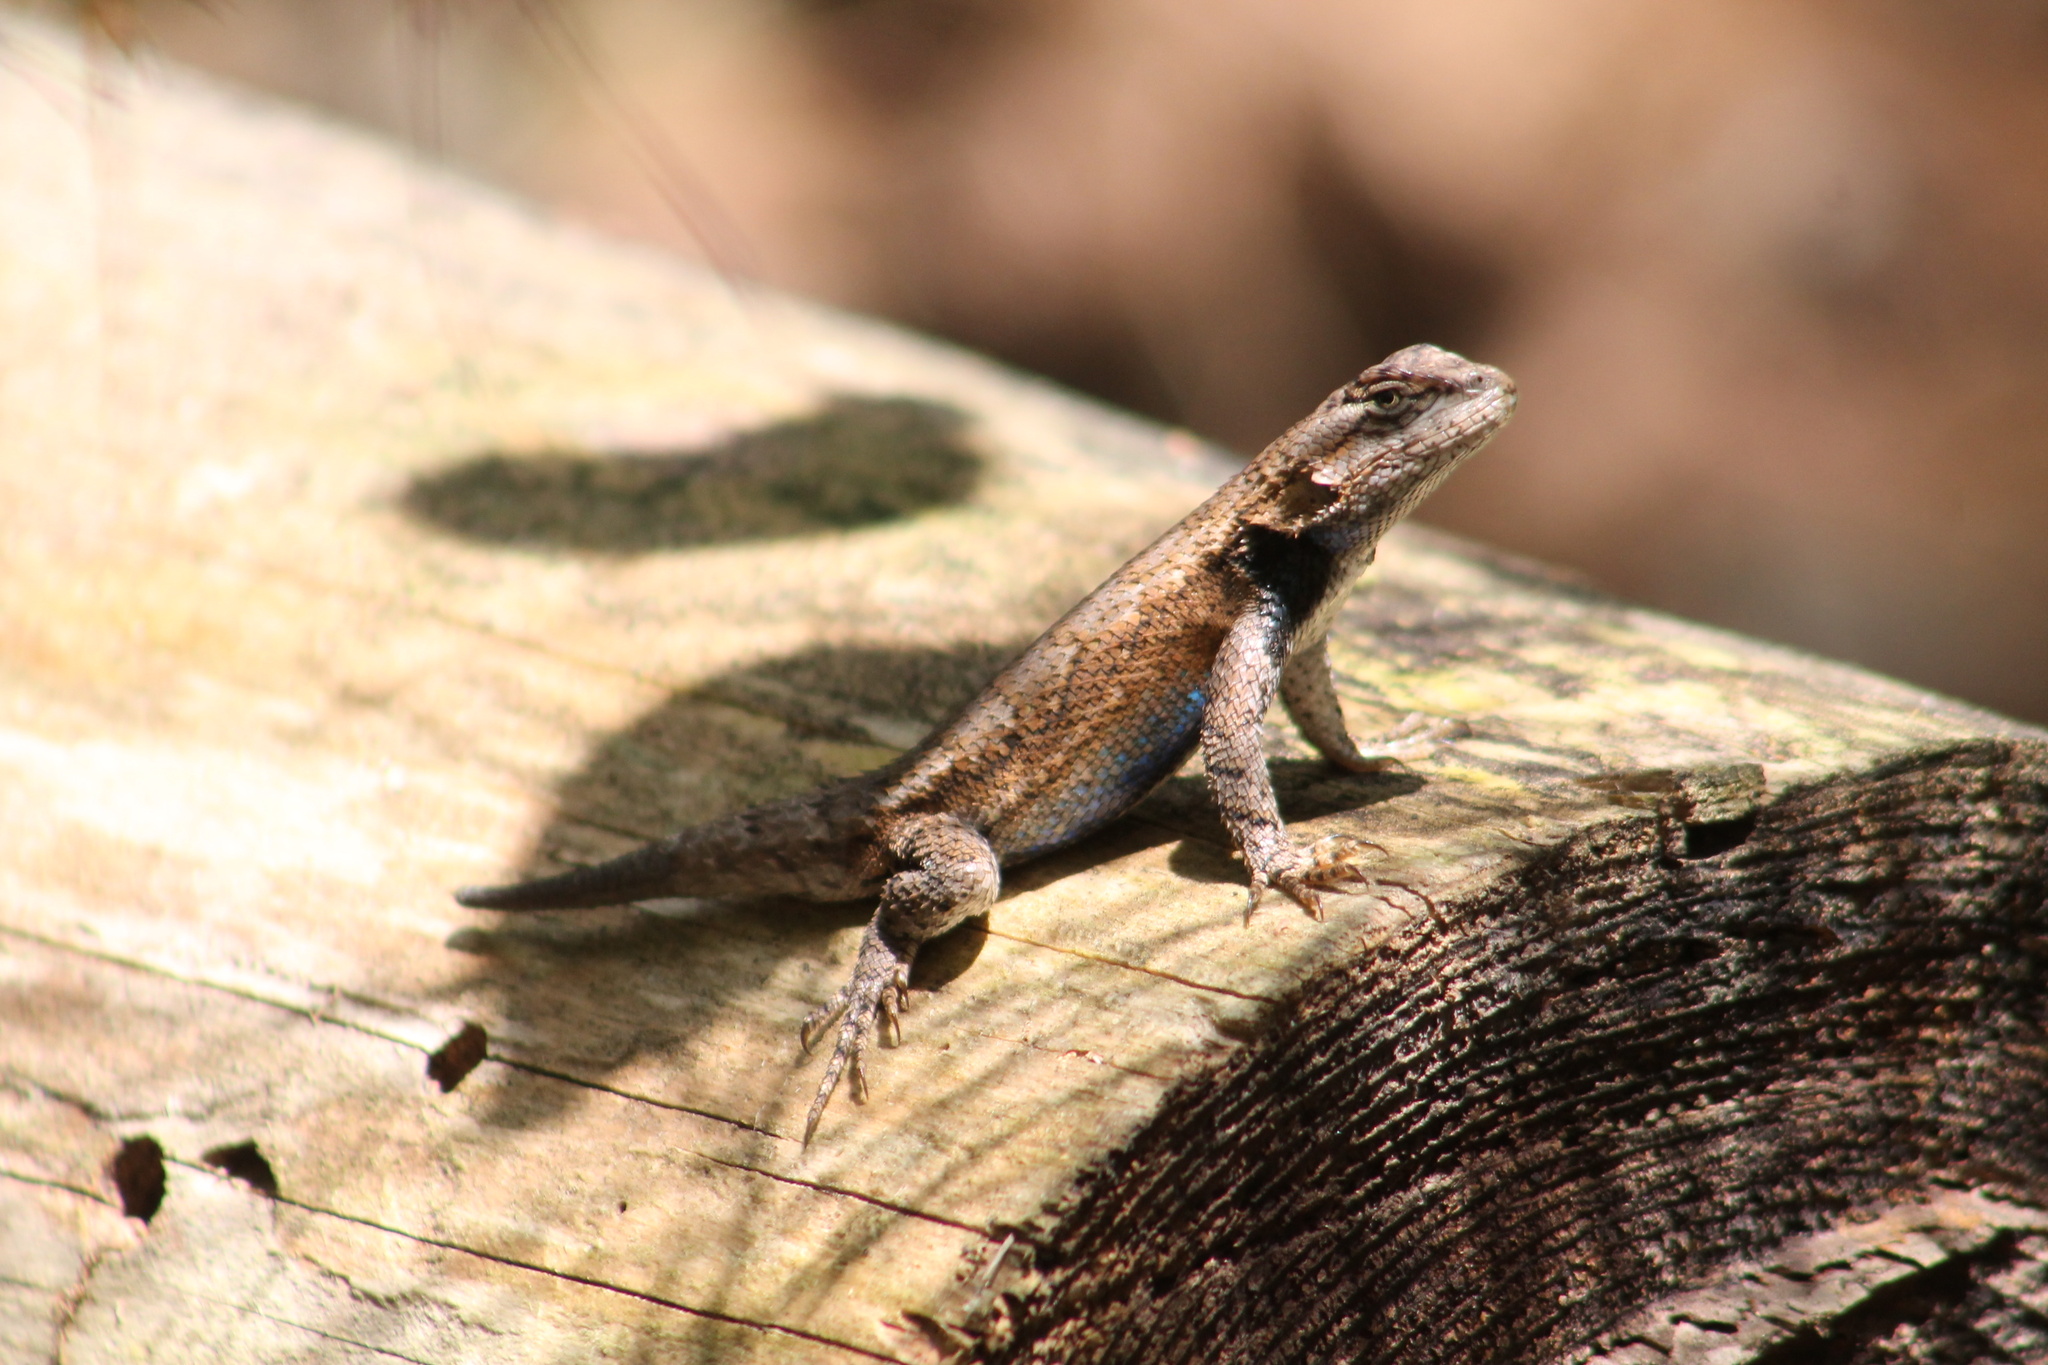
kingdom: Animalia
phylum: Chordata
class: Squamata
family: Phrynosomatidae
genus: Sceloporus
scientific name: Sceloporus undulatus
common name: Eastern fence lizard
